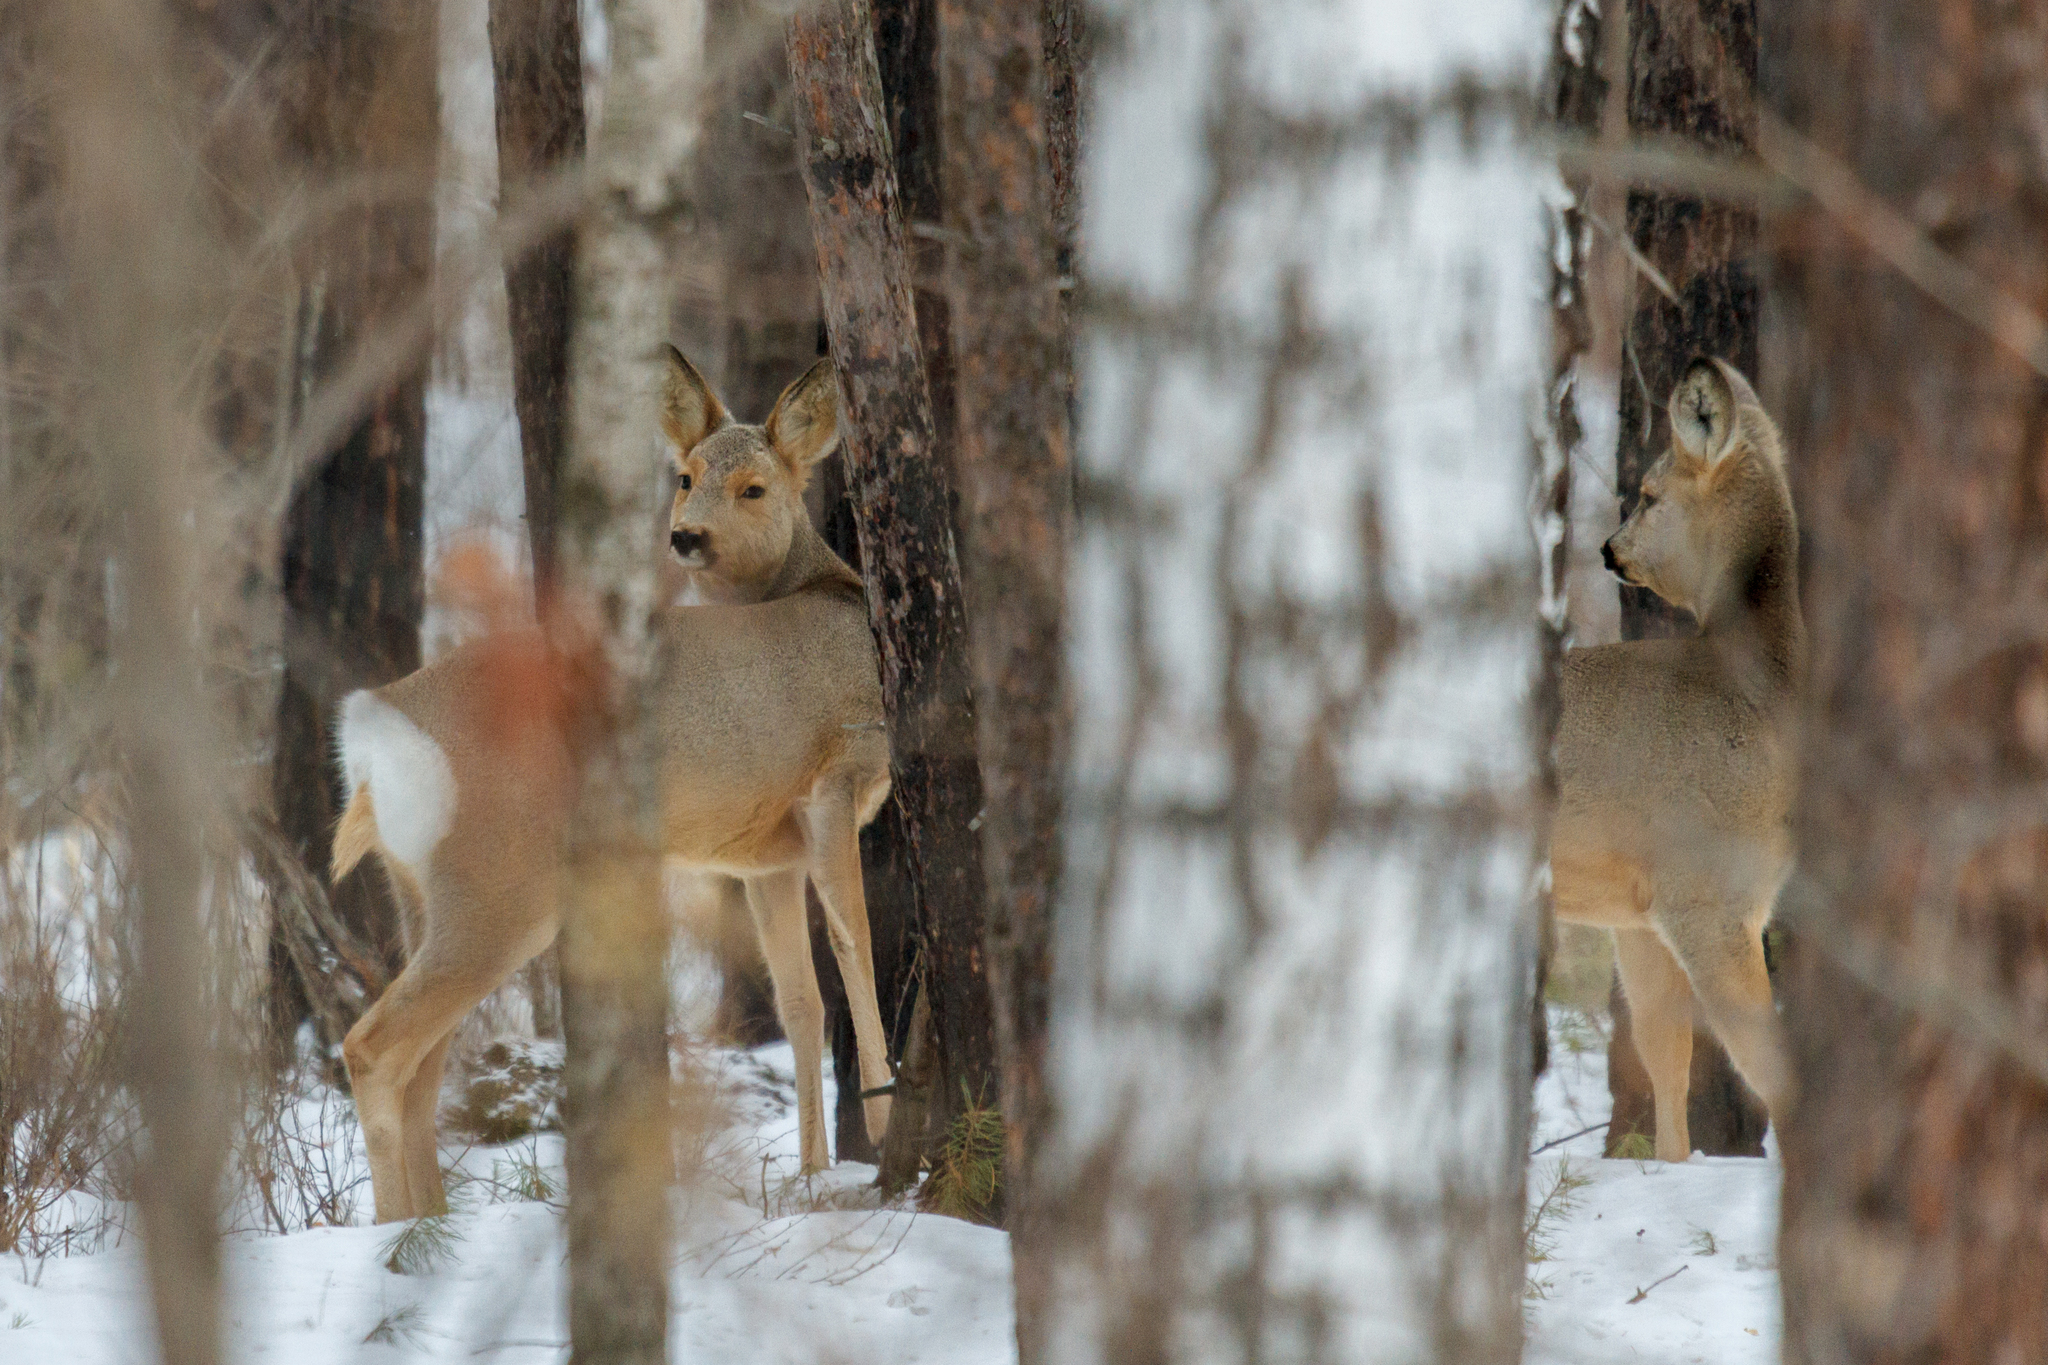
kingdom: Animalia
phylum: Chordata
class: Mammalia
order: Artiodactyla
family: Cervidae
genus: Capreolus
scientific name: Capreolus pygargus
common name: Siberian roe
